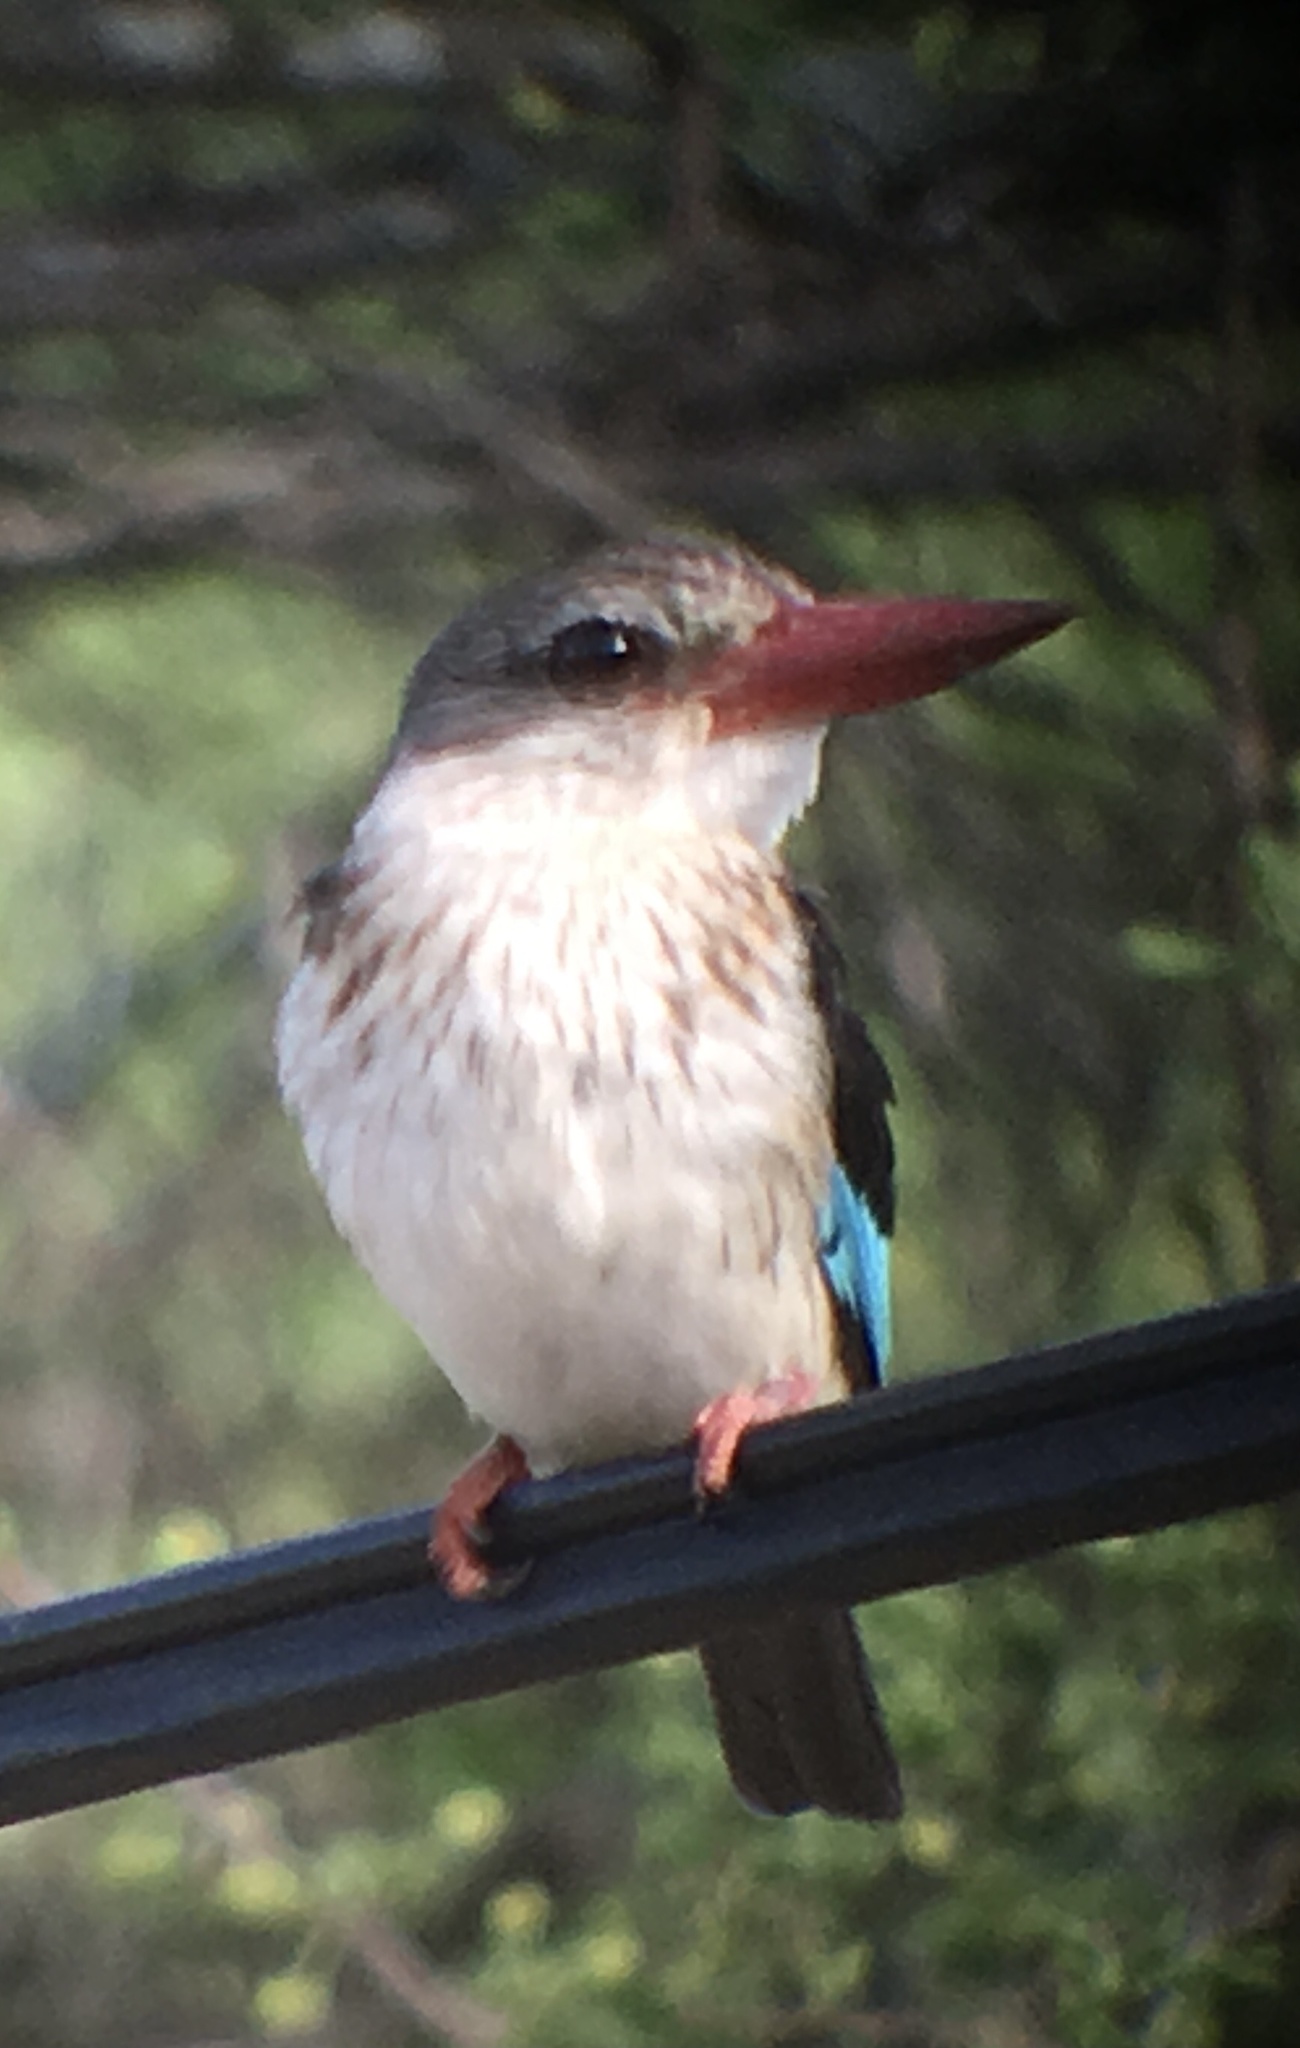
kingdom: Animalia
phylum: Chordata
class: Aves
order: Coraciiformes
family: Alcedinidae
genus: Halcyon
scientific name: Halcyon albiventris
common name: Brown-hooded kingfisher
